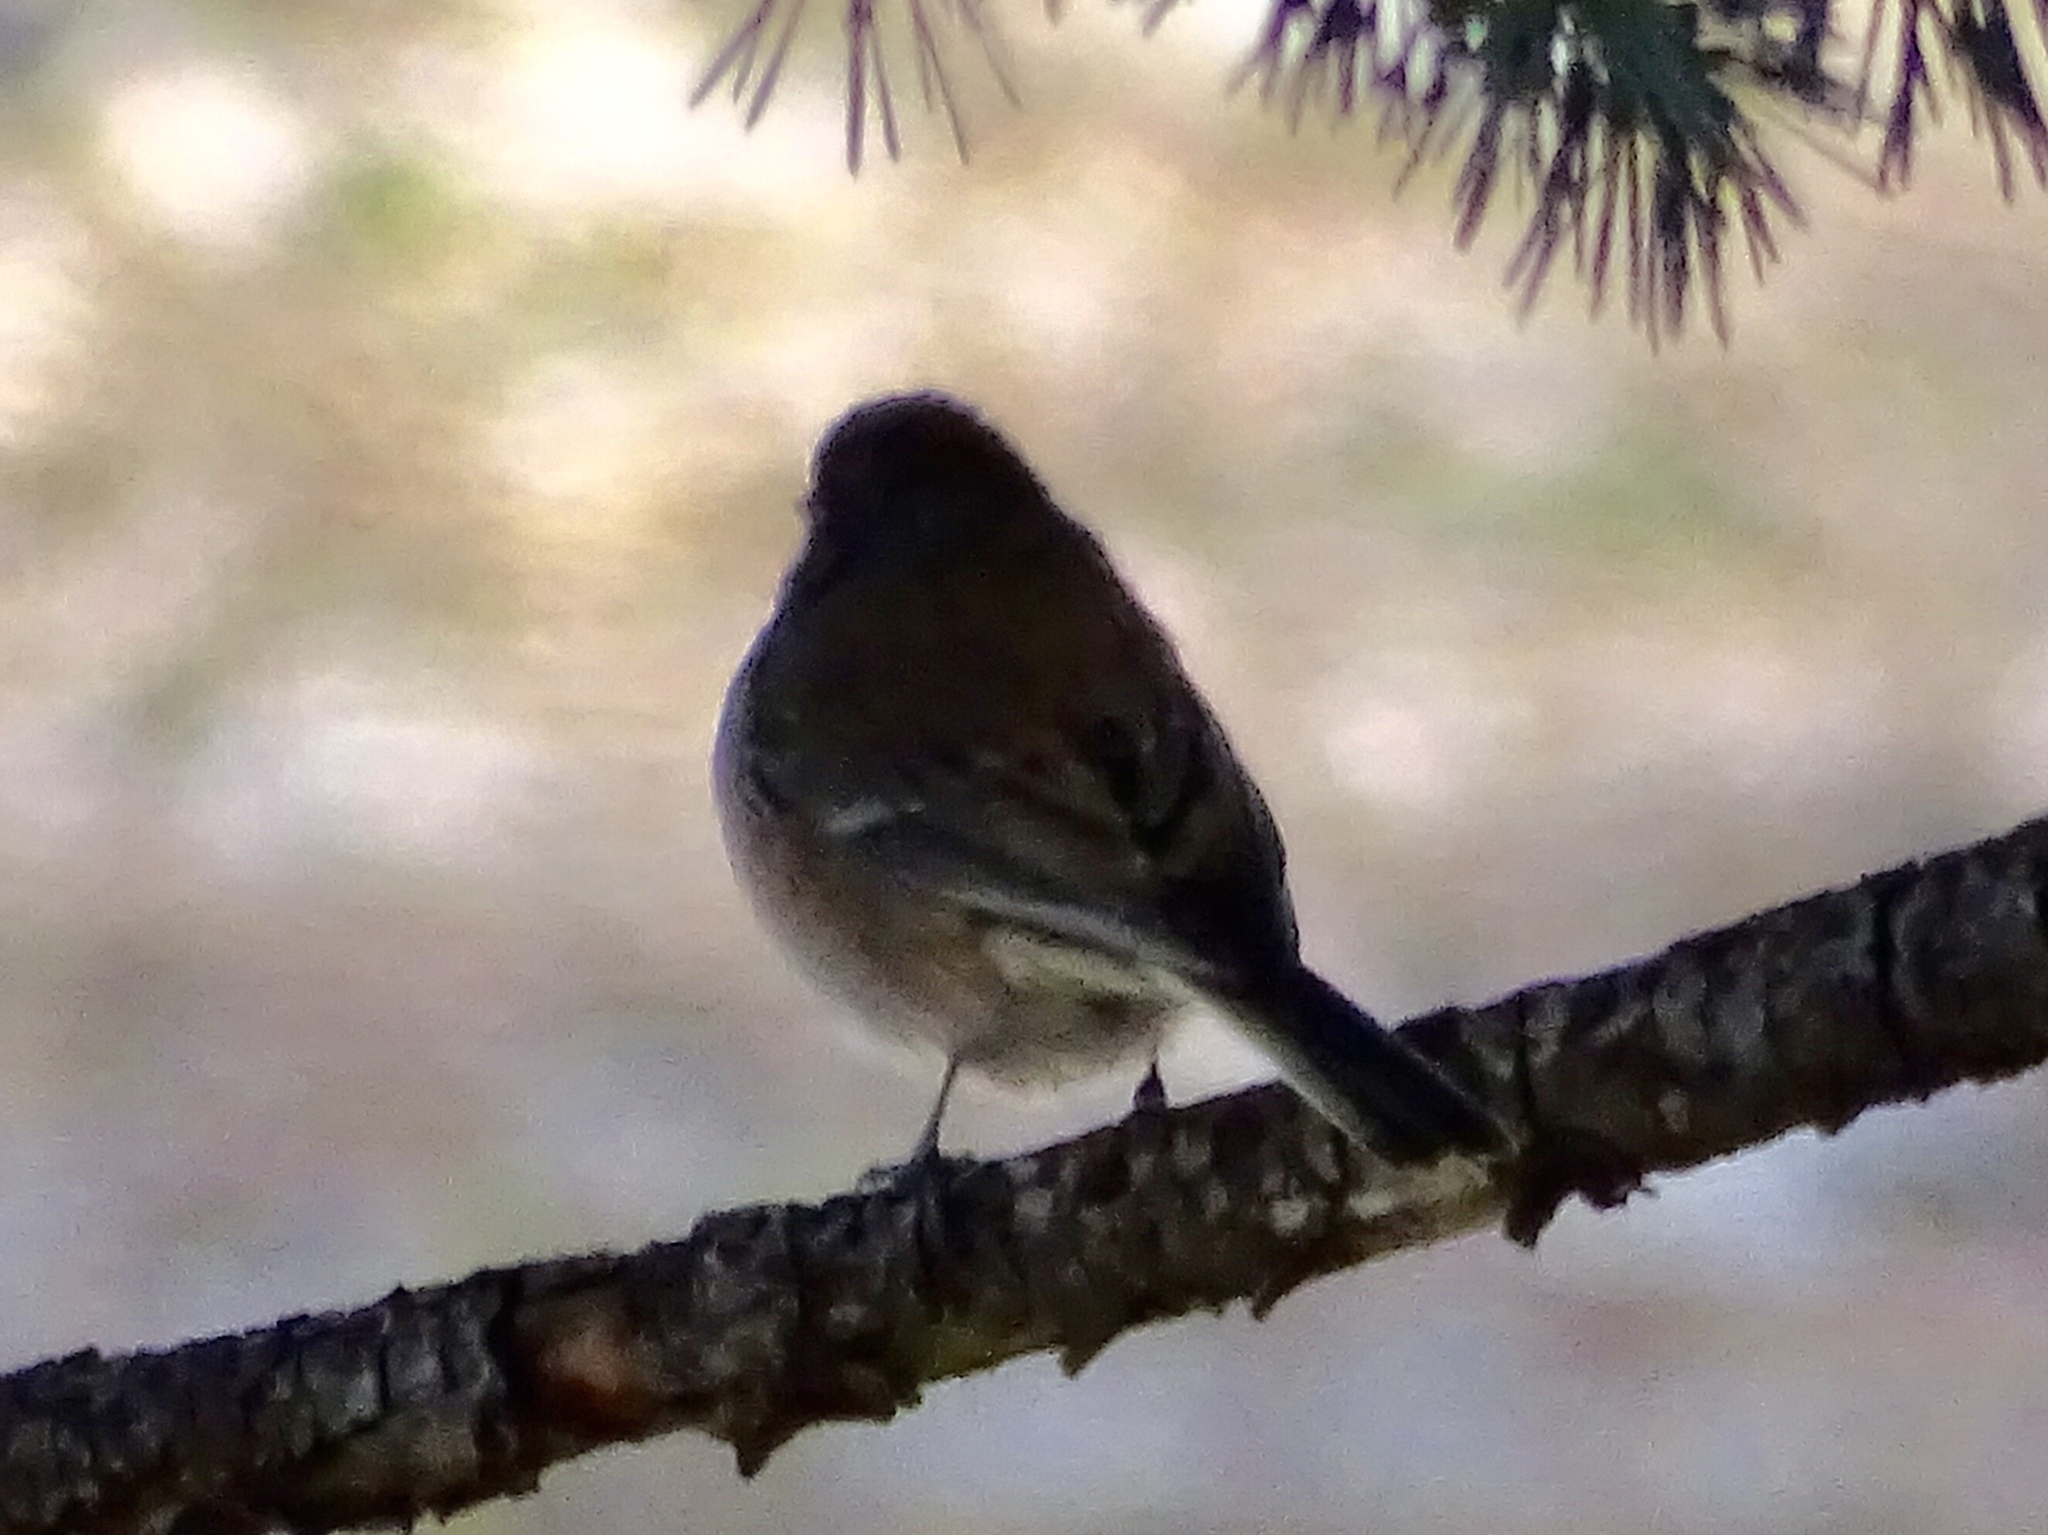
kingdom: Animalia
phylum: Chordata
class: Aves
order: Passeriformes
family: Passerellidae
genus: Junco
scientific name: Junco hyemalis
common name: Dark-eyed junco
